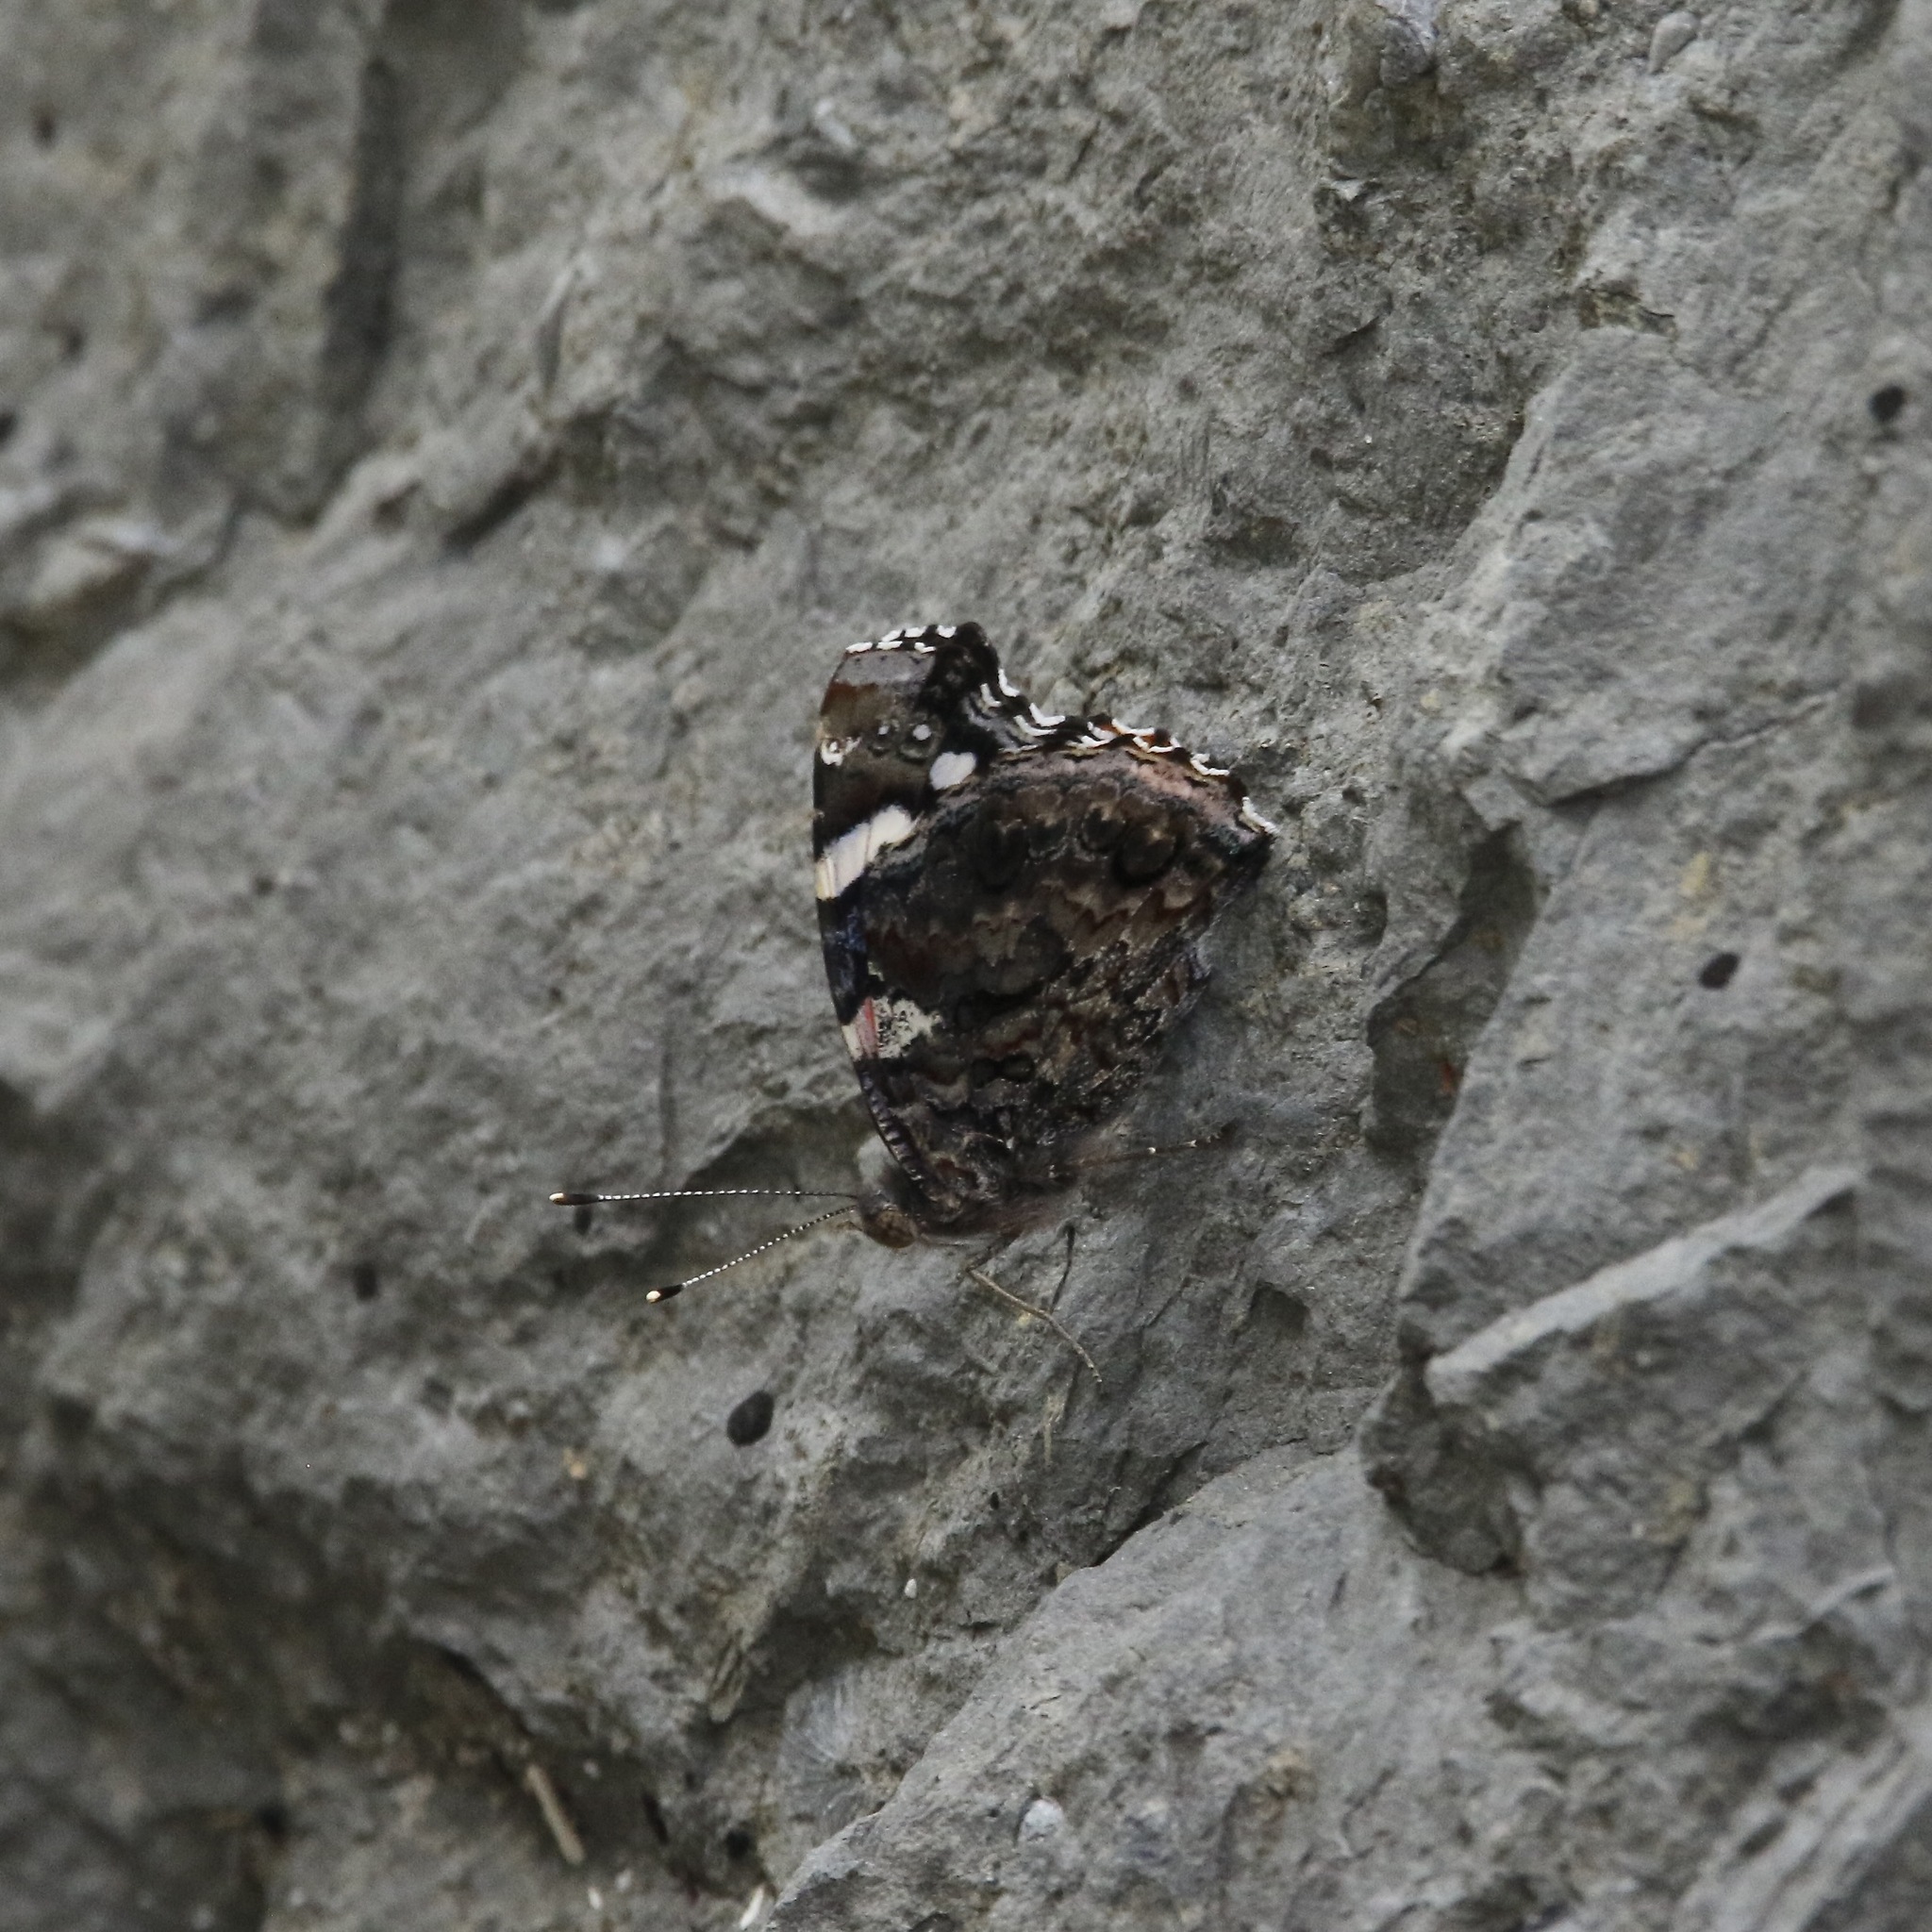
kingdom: Animalia
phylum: Arthropoda
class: Insecta
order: Lepidoptera
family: Nymphalidae
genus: Vanessa
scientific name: Vanessa atalanta
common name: Red admiral
